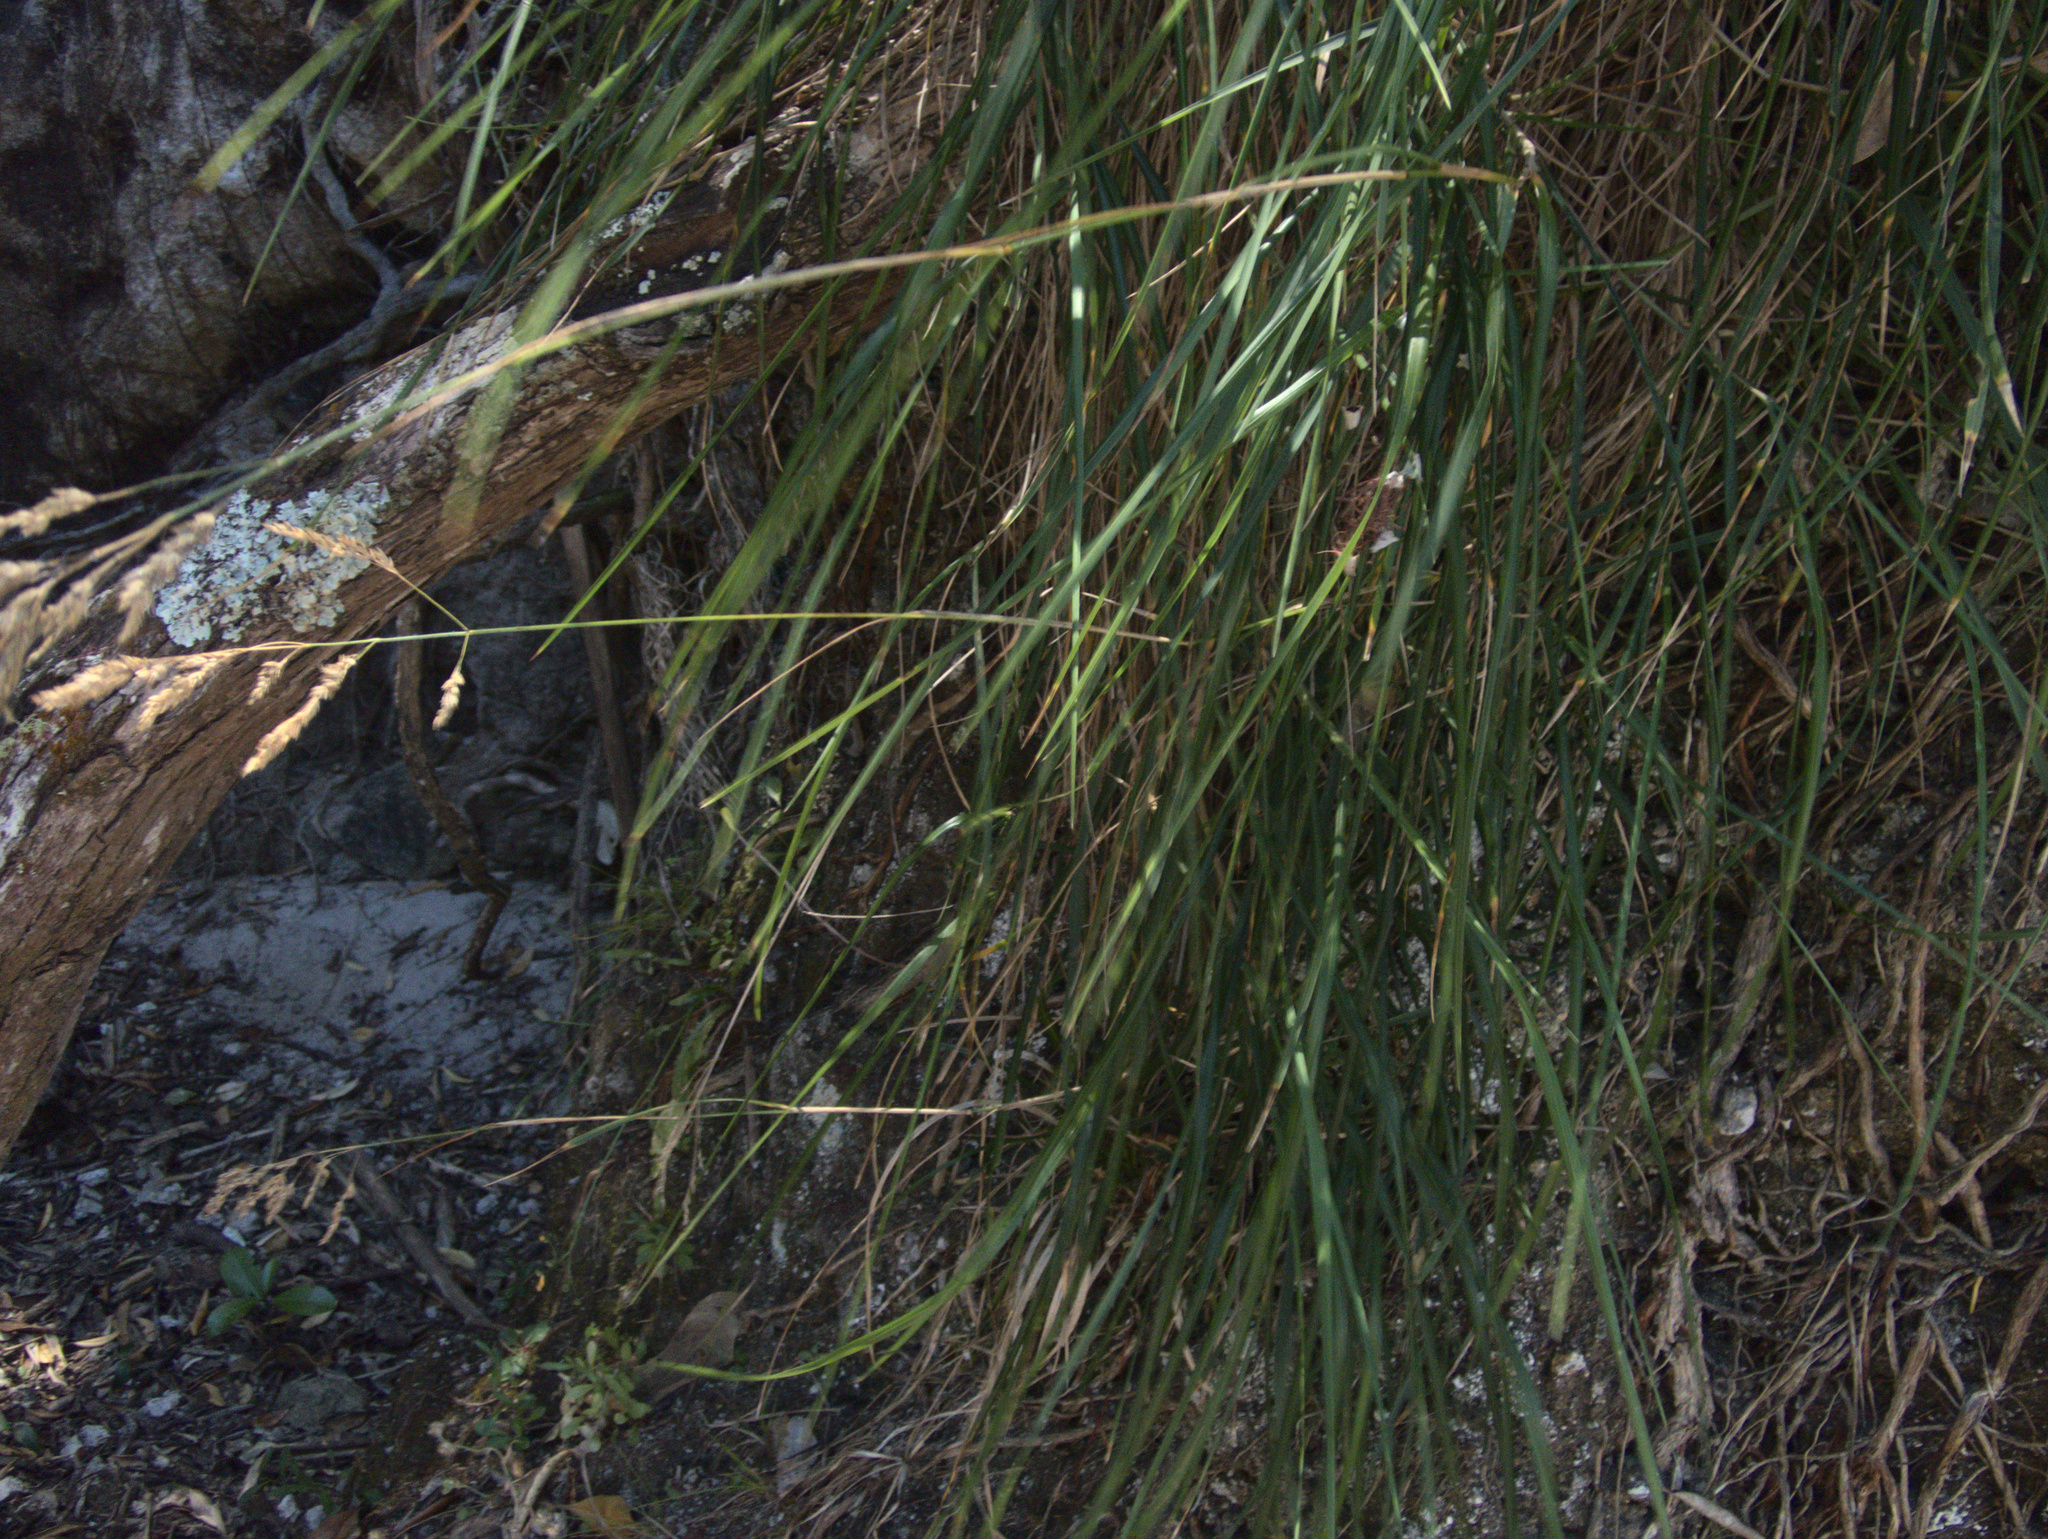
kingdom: Plantae
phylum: Tracheophyta
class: Liliopsida
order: Poales
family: Poaceae
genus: Poa
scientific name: Poa anceps
